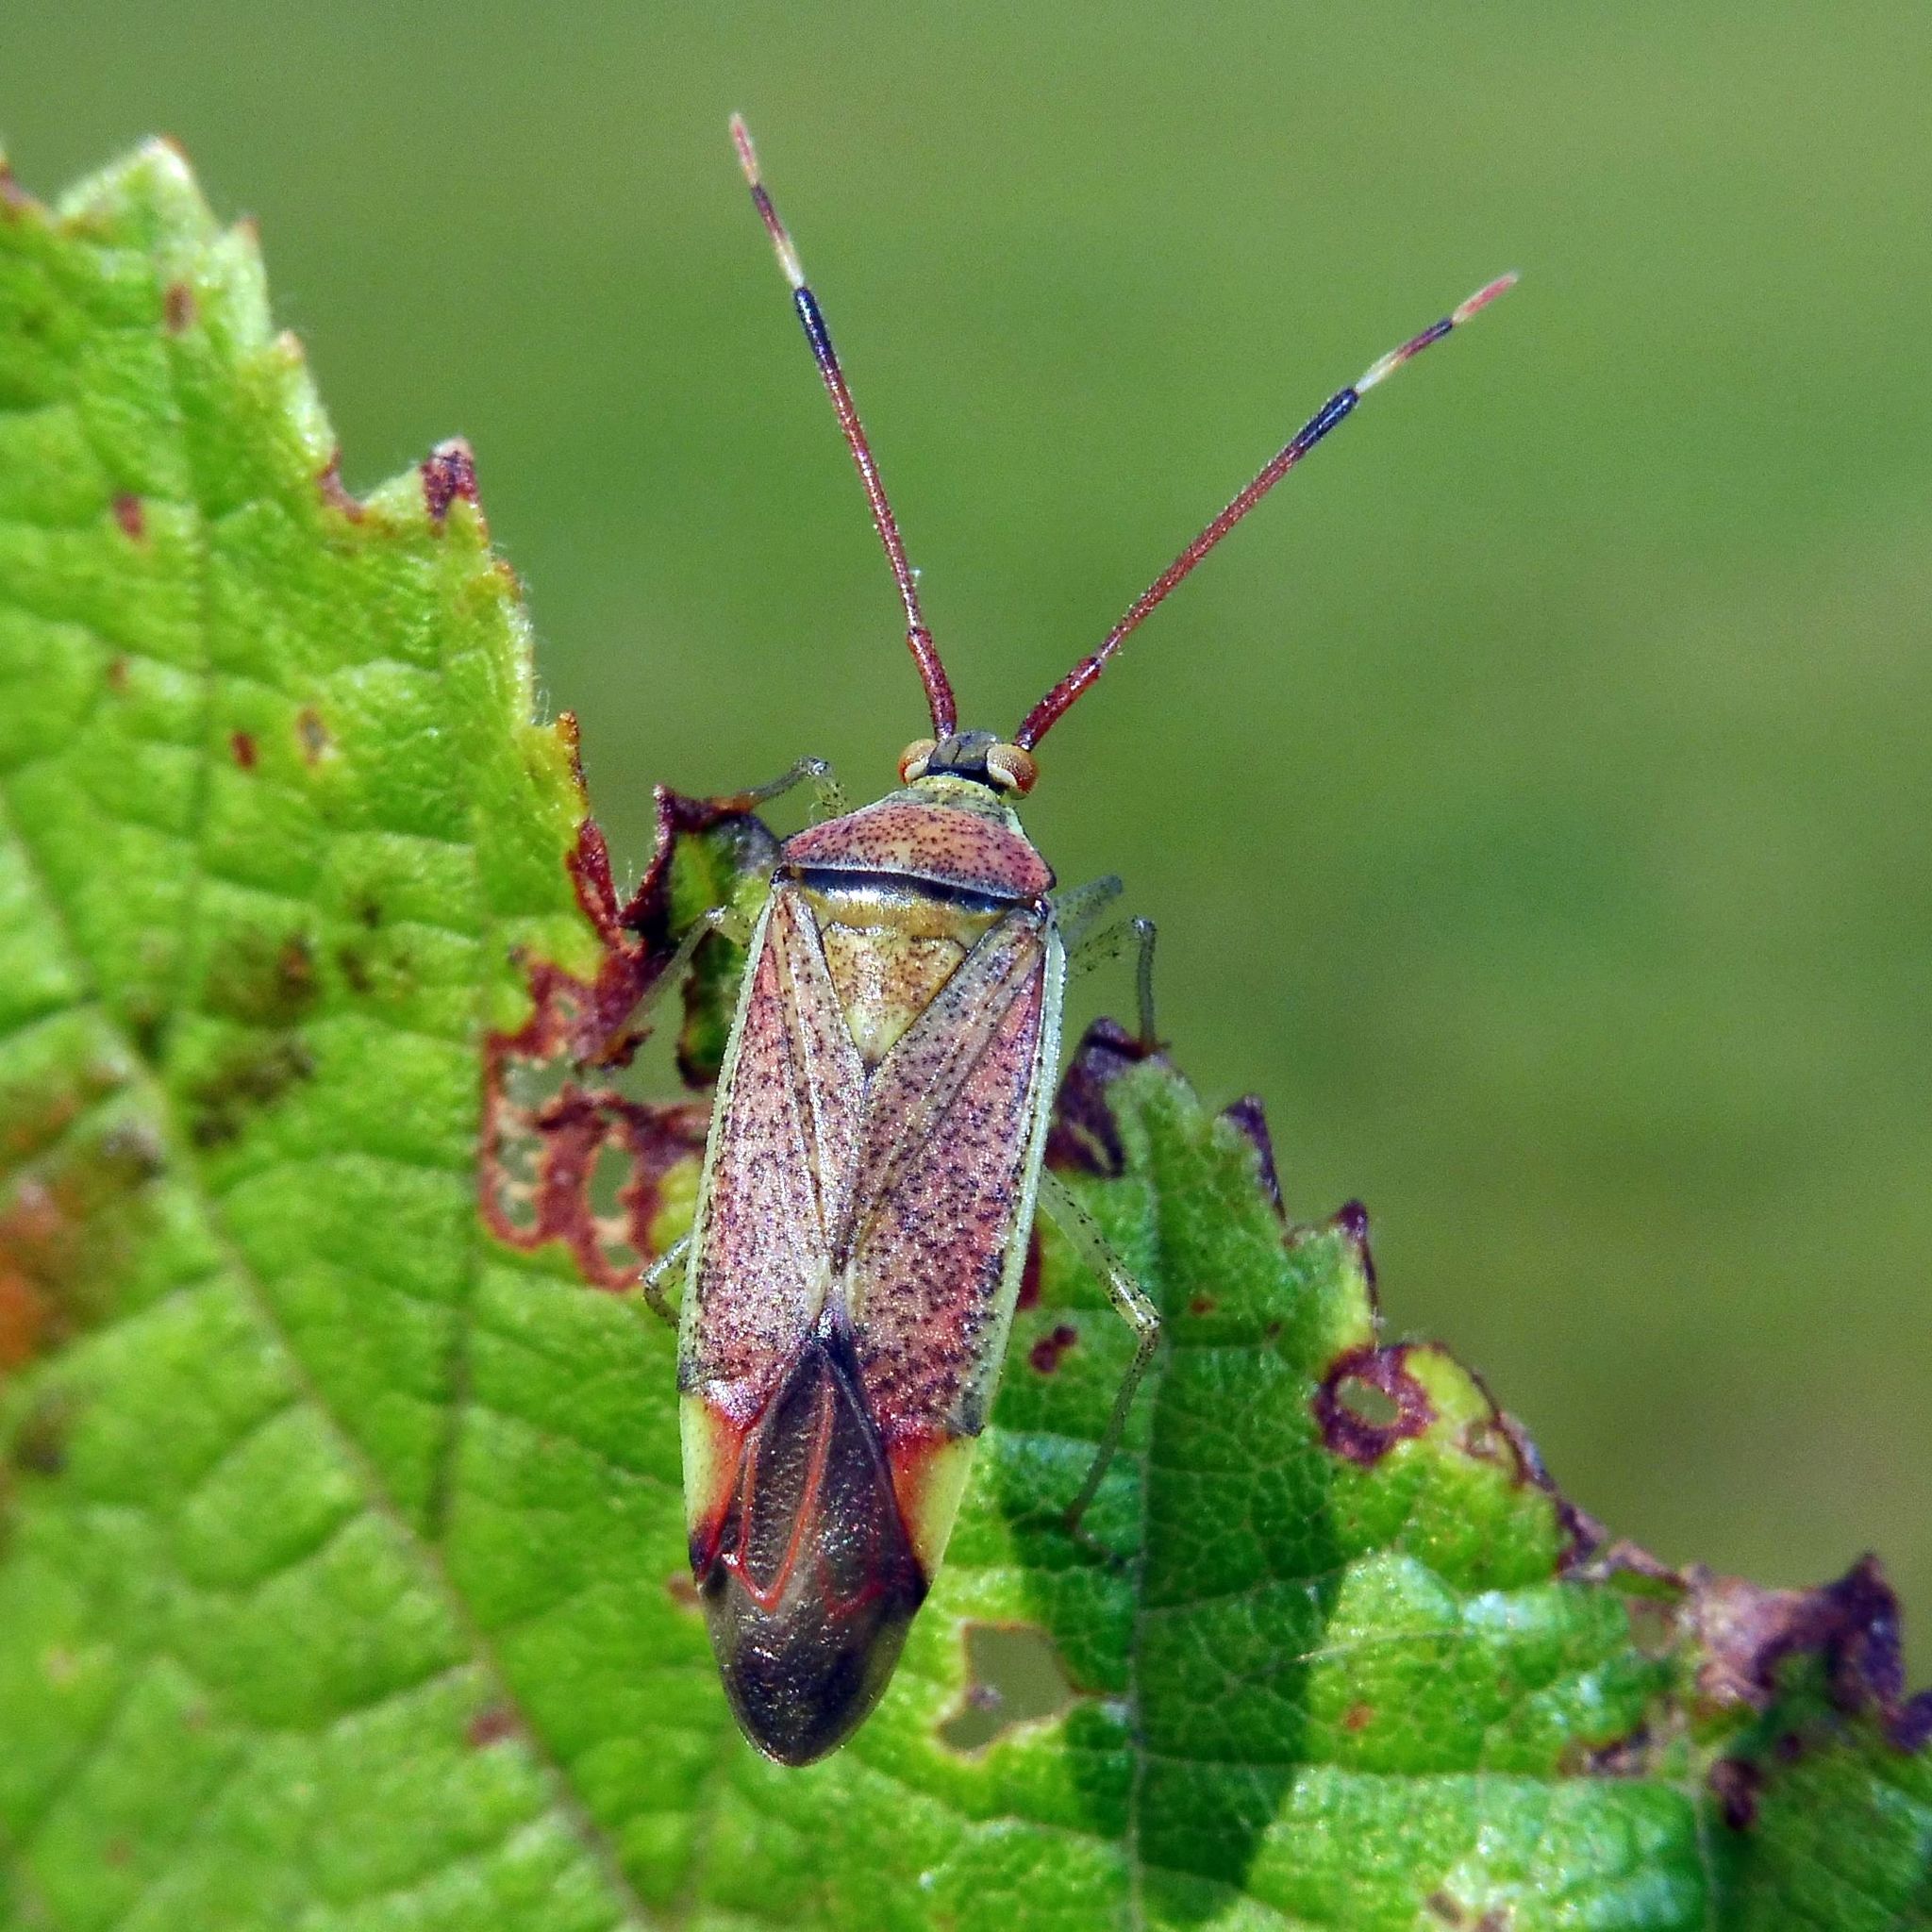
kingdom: Animalia
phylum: Arthropoda
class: Insecta
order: Hemiptera
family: Miridae
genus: Pantilius
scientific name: Pantilius tunicatus
